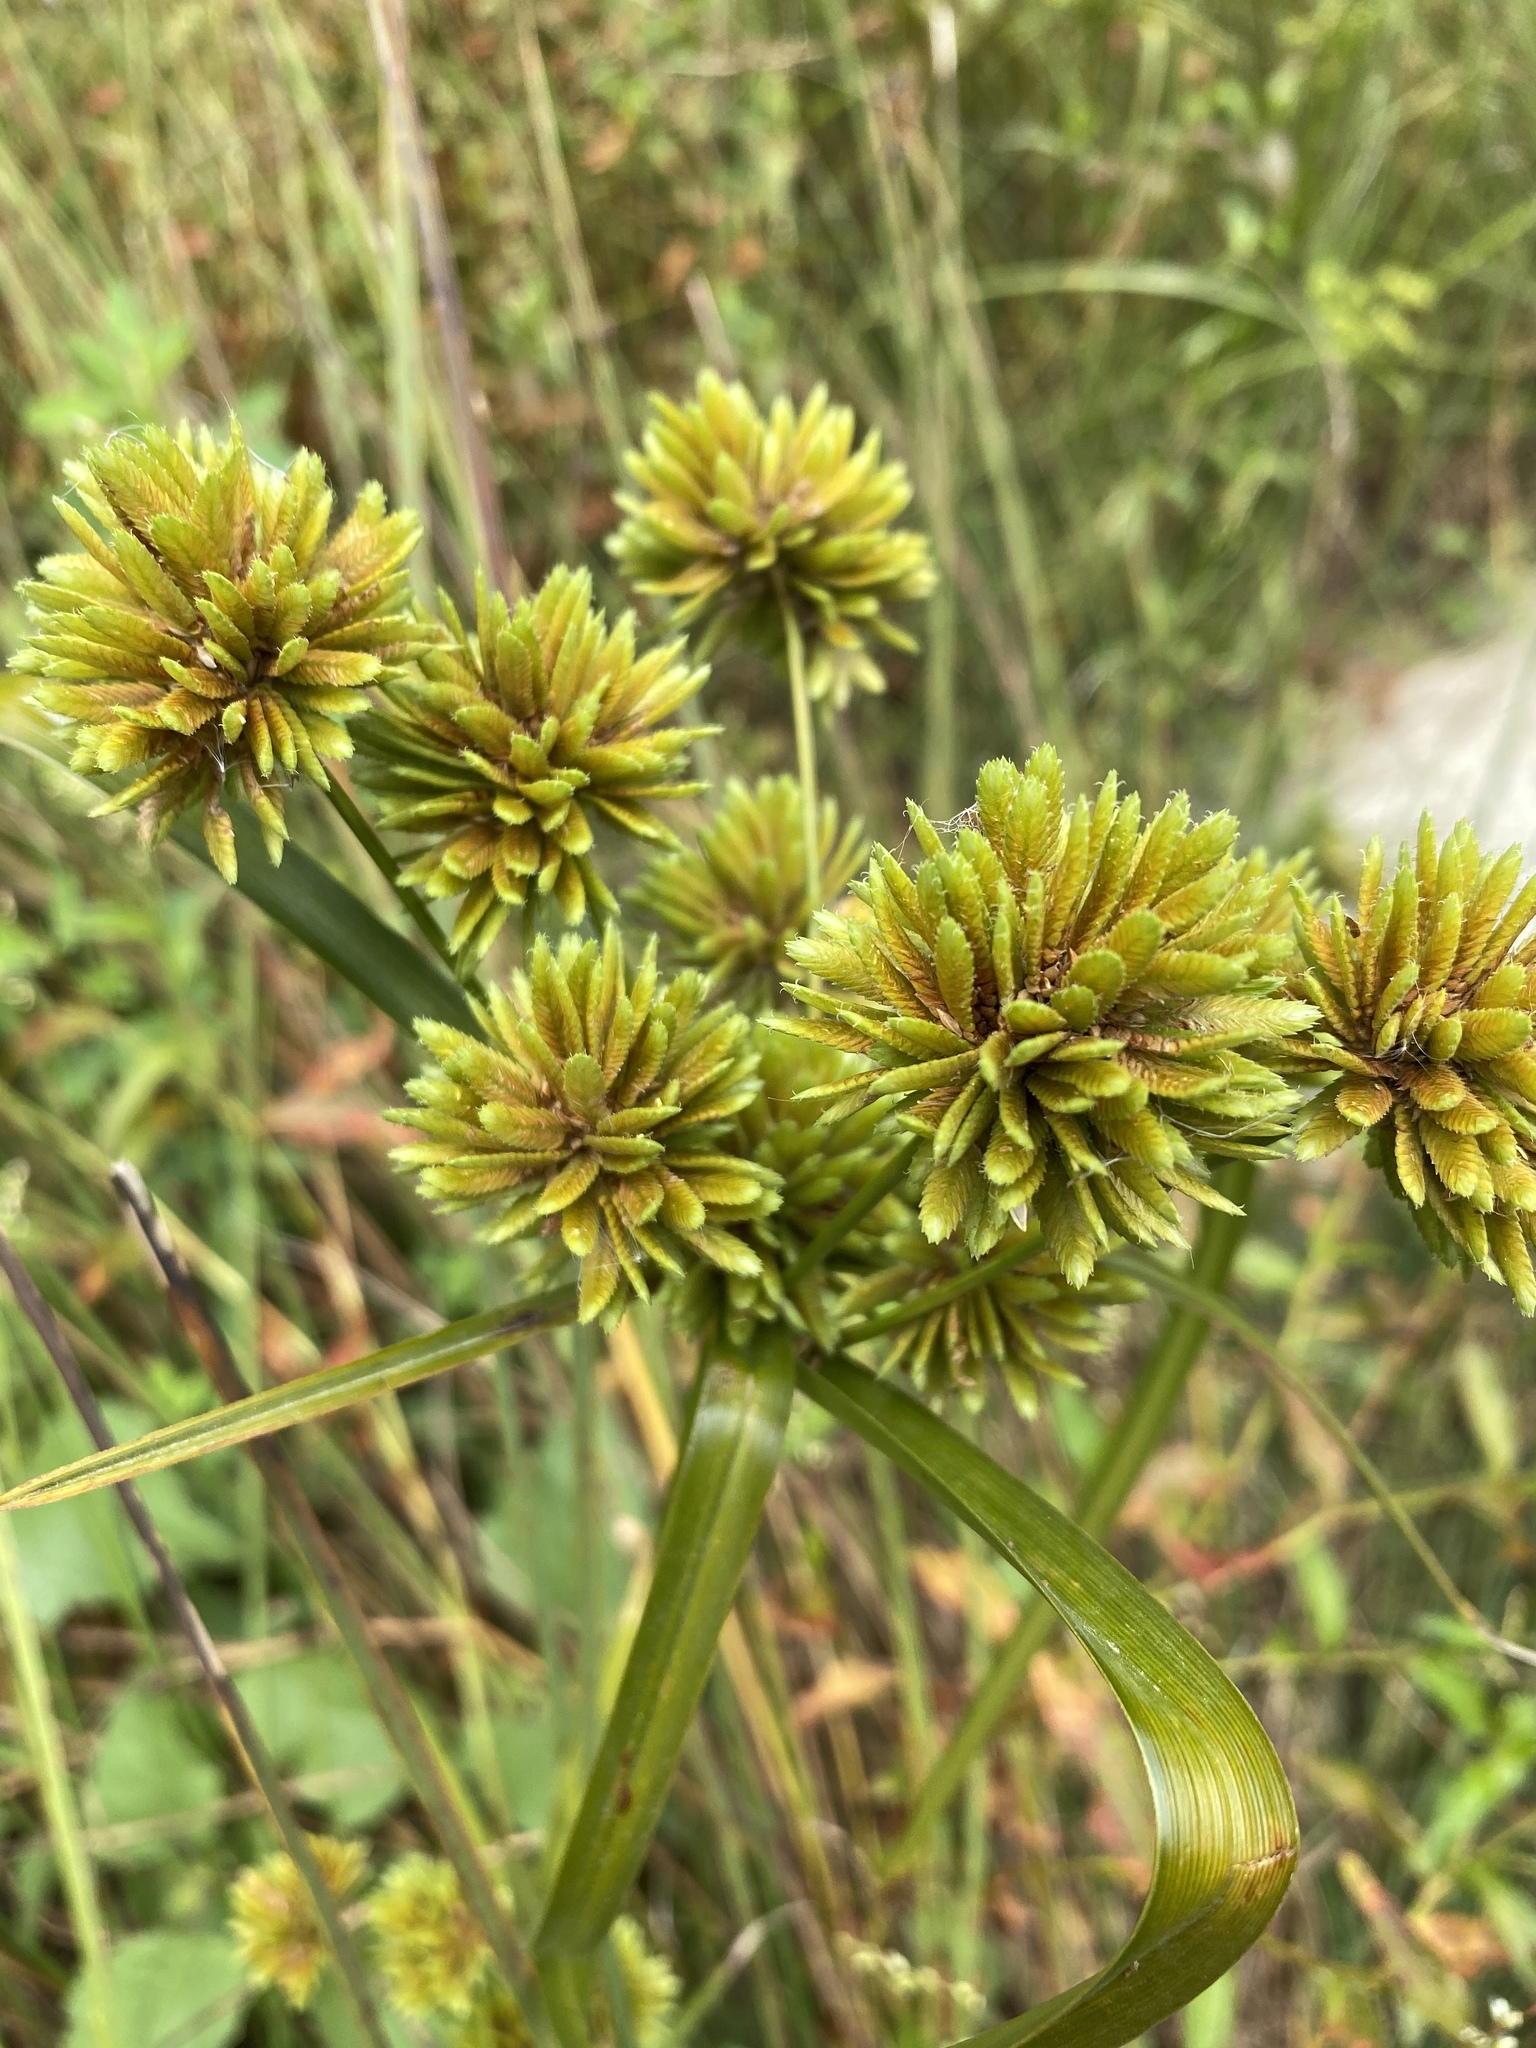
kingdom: Plantae
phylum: Tracheophyta
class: Liliopsida
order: Poales
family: Cyperaceae
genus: Cyperus
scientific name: Cyperus eragrostis
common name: Tall flatsedge
